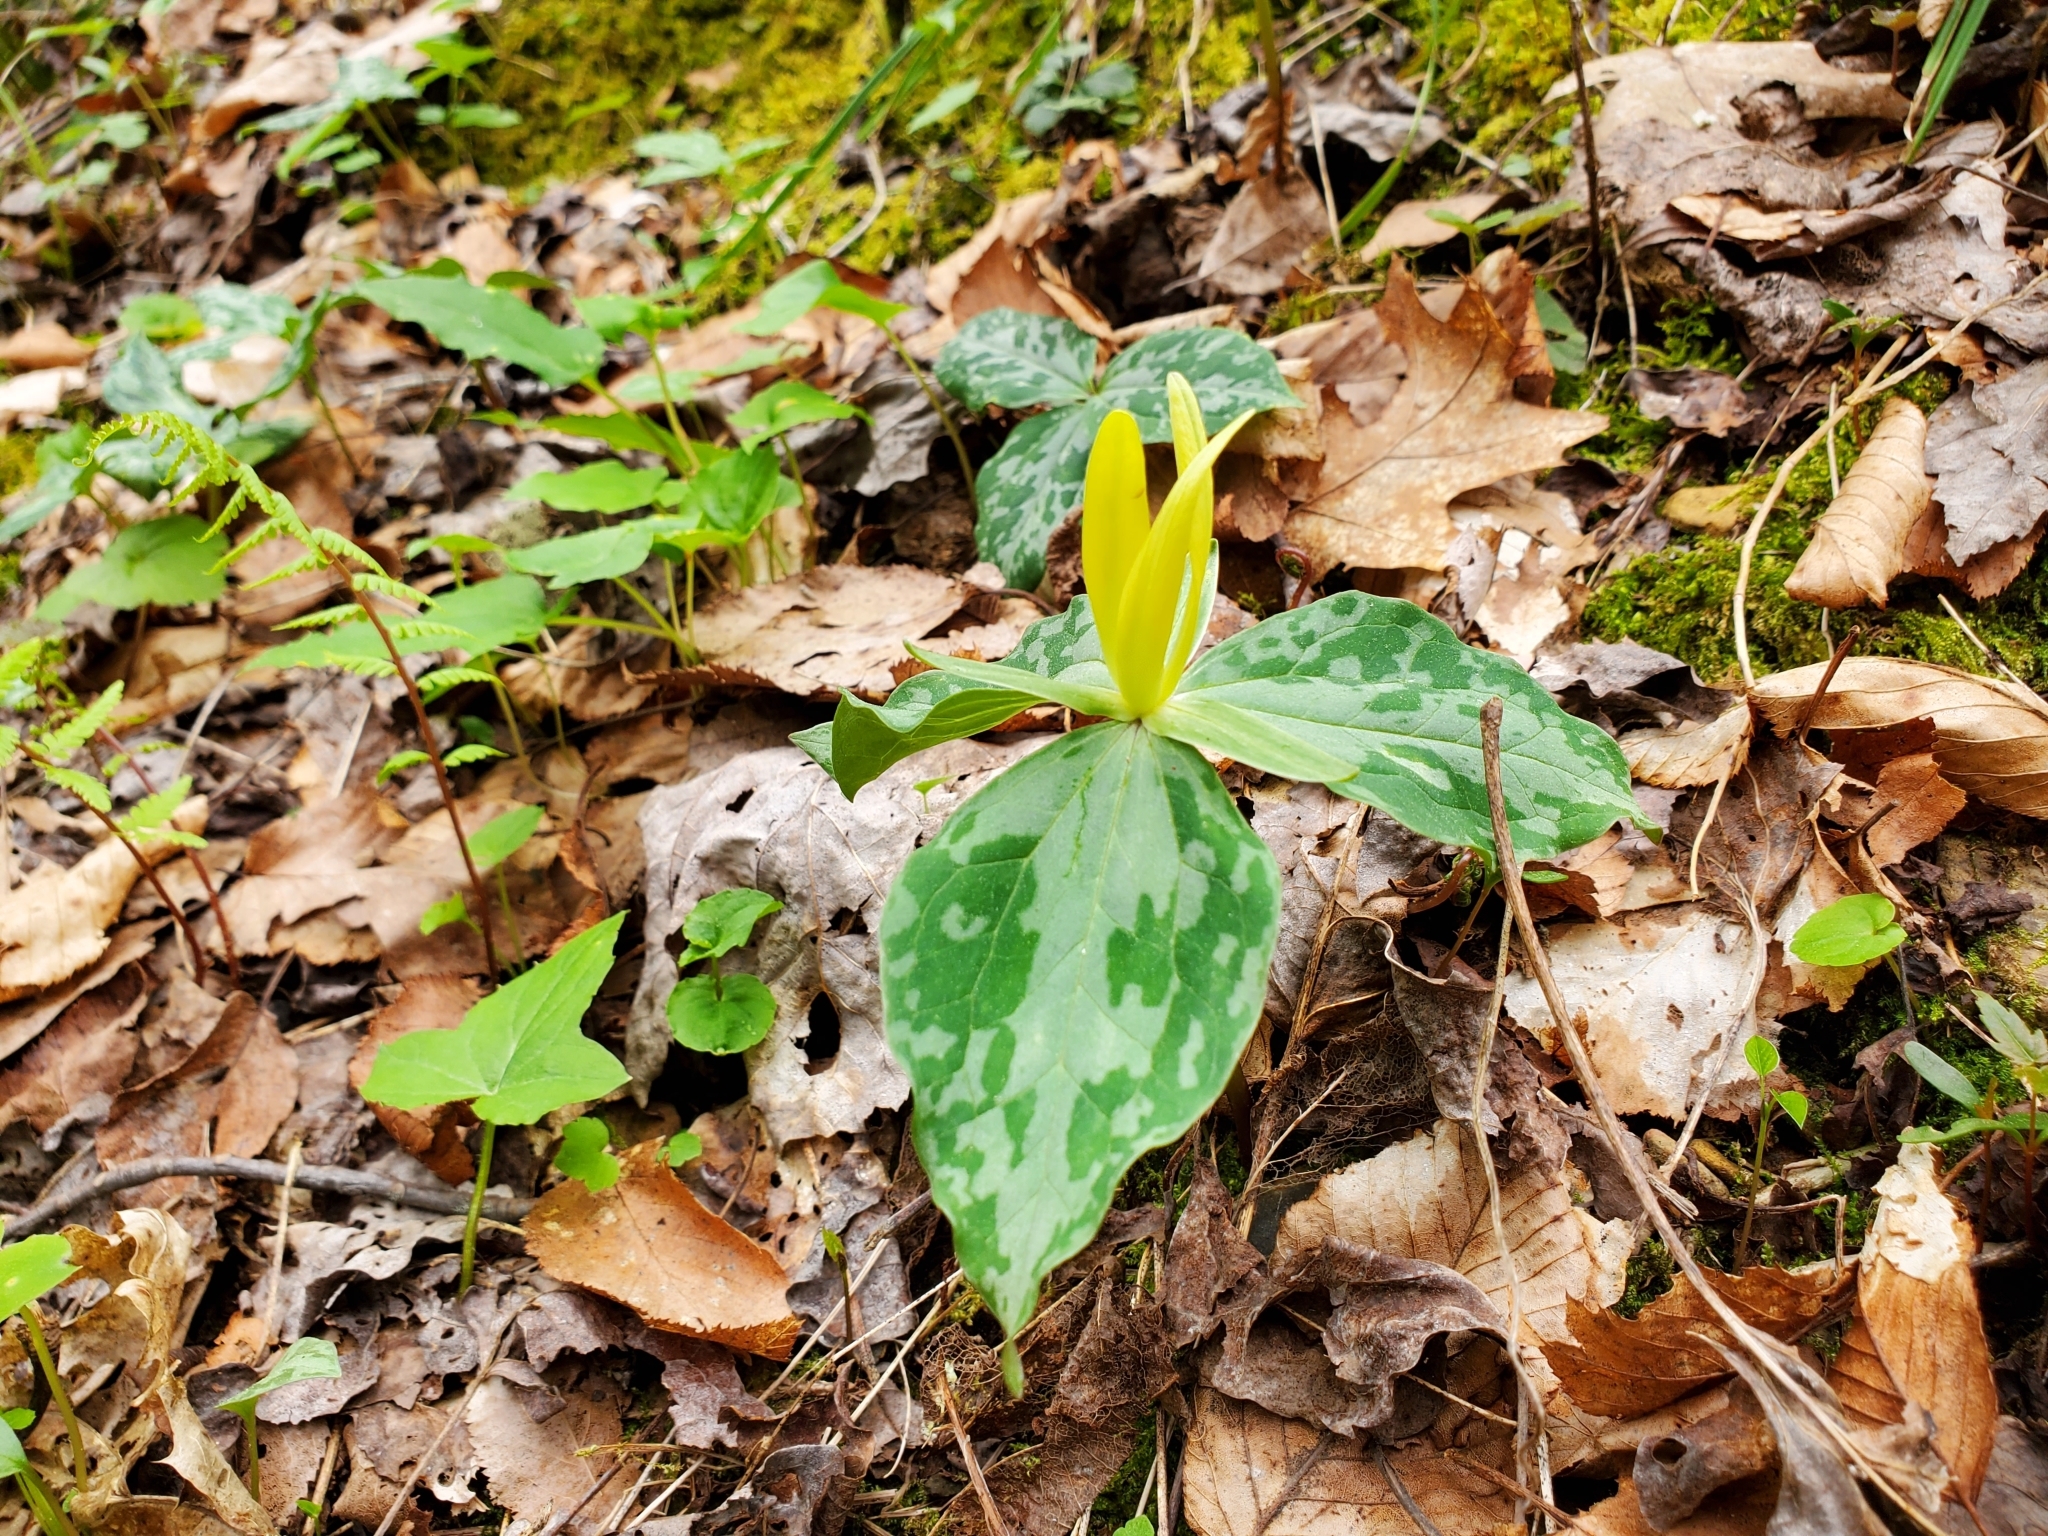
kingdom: Plantae
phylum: Tracheophyta
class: Liliopsida
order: Liliales
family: Melanthiaceae
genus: Trillium
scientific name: Trillium luteum
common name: Wax trillium
